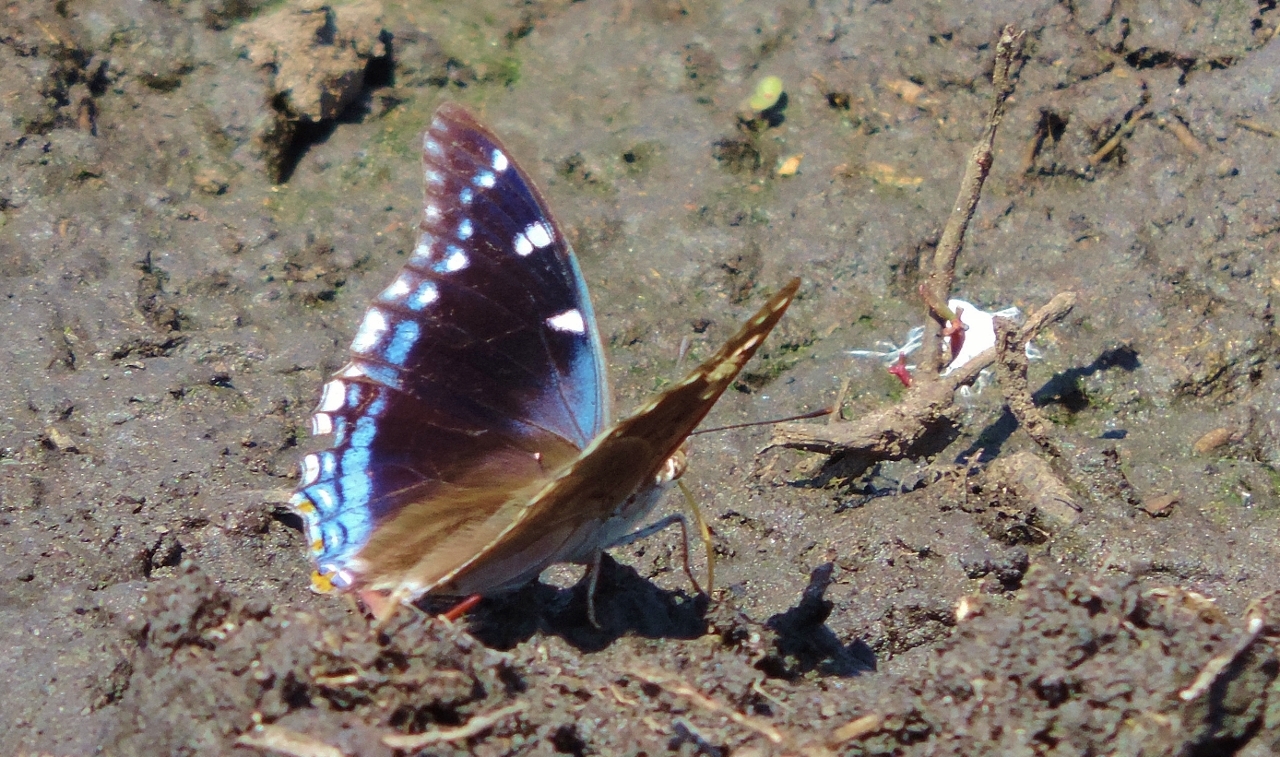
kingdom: Animalia
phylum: Arthropoda
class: Insecta
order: Lepidoptera
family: Nymphalidae
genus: Charaxes
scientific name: Charaxes guderiana
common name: Blue-spangled charaxes
